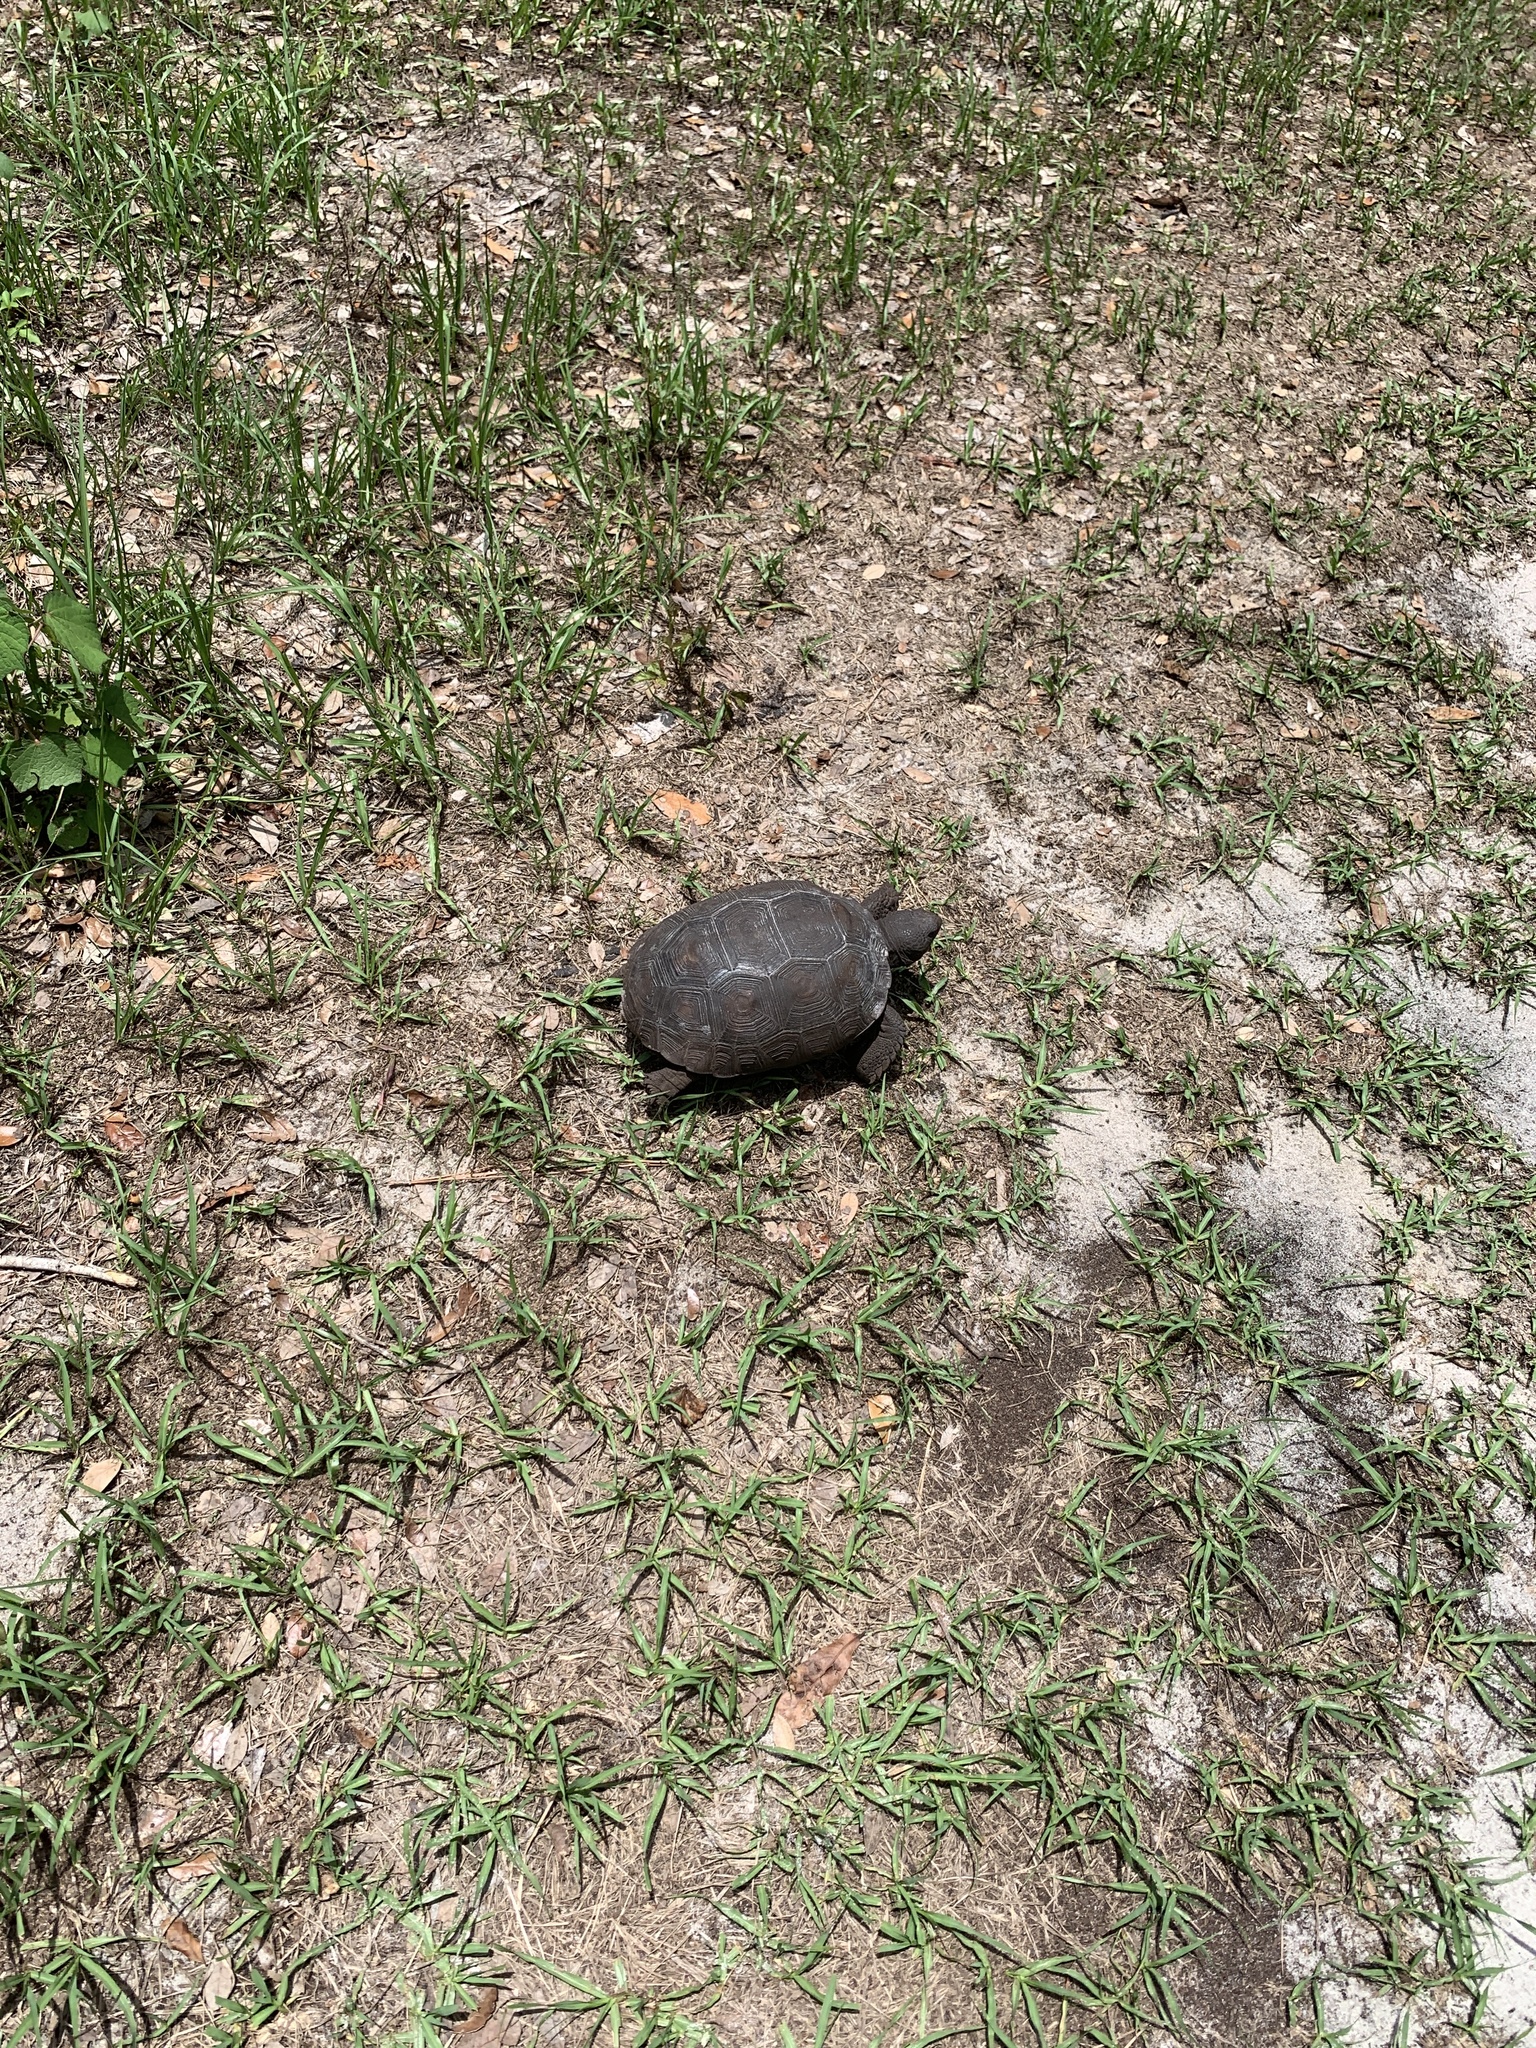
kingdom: Animalia
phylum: Chordata
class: Testudines
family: Testudinidae
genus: Gopherus
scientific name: Gopherus polyphemus
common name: Florida gopher tortoise
